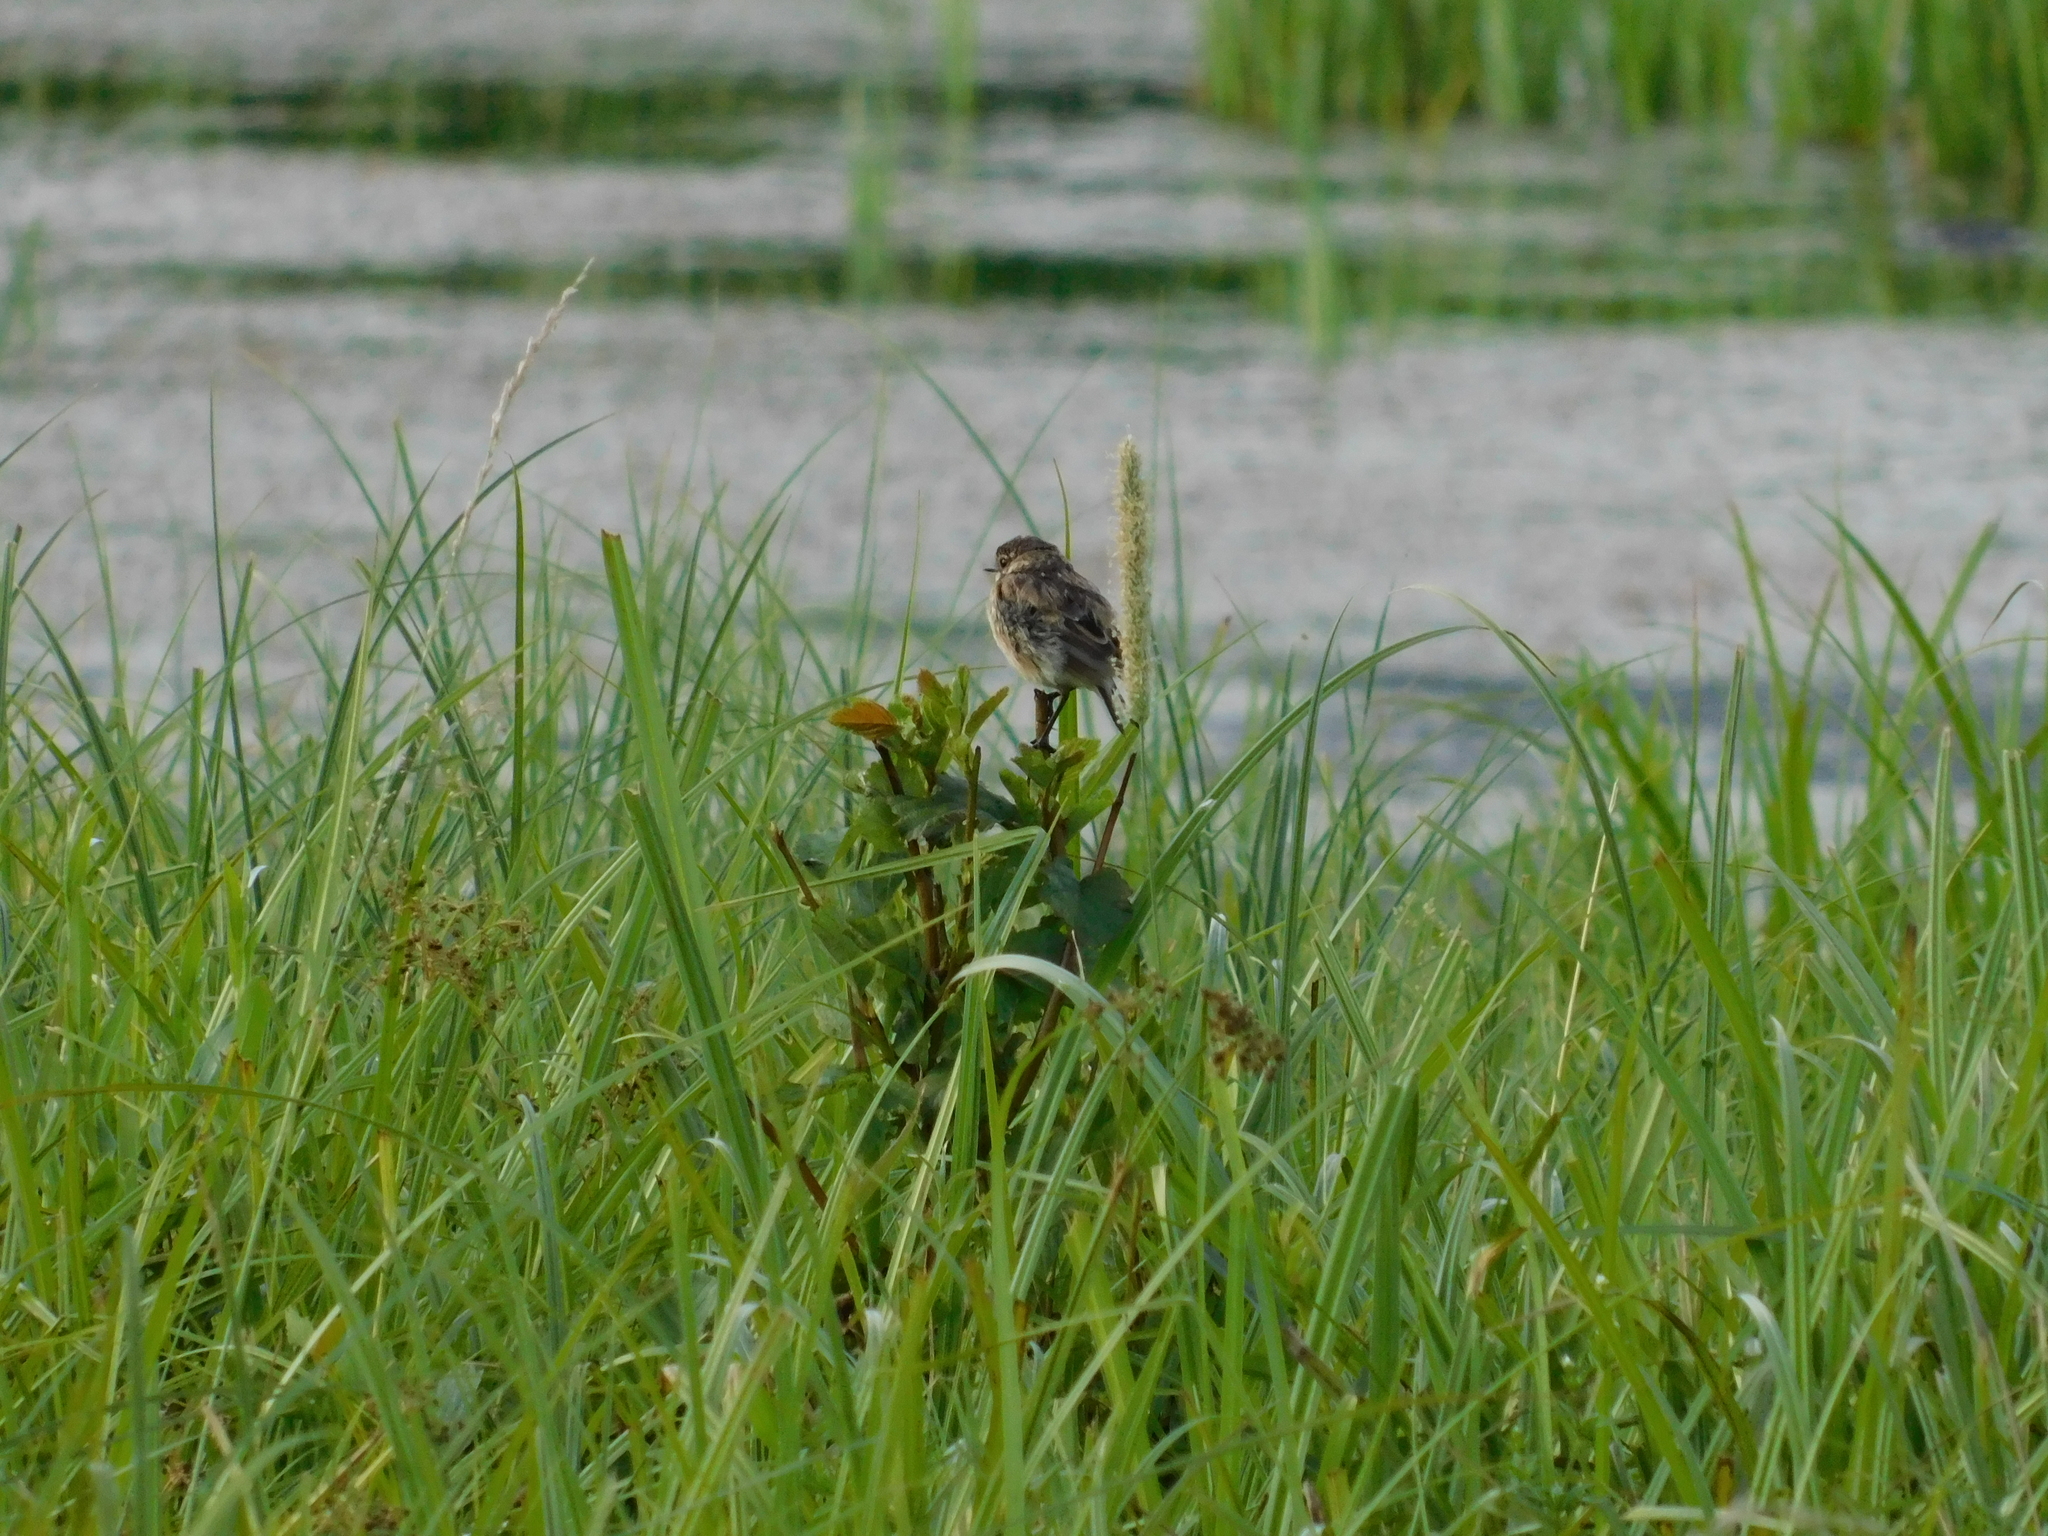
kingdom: Animalia
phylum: Chordata
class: Aves
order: Passeriformes
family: Muscicapidae
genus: Saxicola
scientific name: Saxicola maurus
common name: Siberian stonechat
